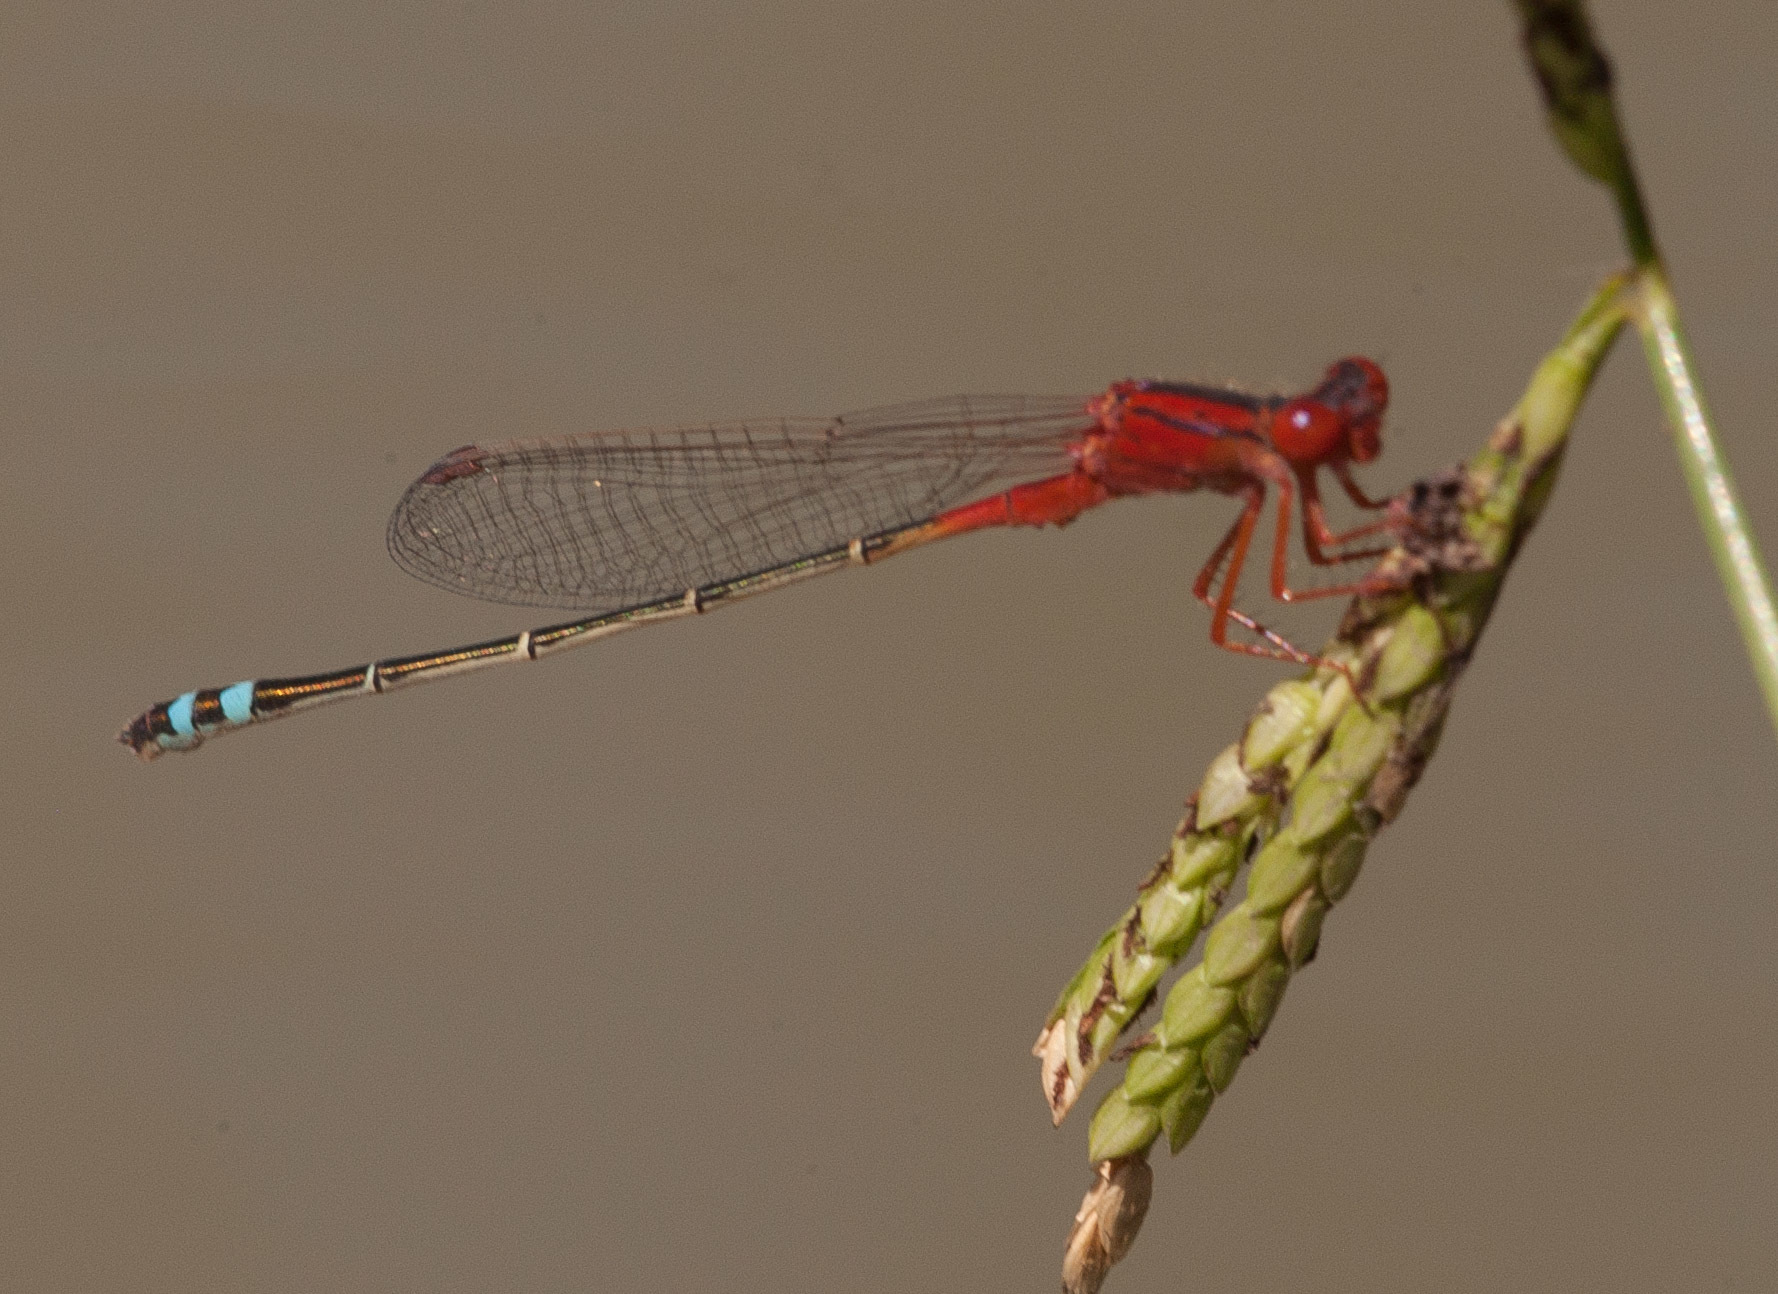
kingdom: Animalia
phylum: Arthropoda
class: Insecta
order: Odonata
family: Coenagrionidae
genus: Xanthagrion
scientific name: Xanthagrion erythroneurum
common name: Red and blue damsel
